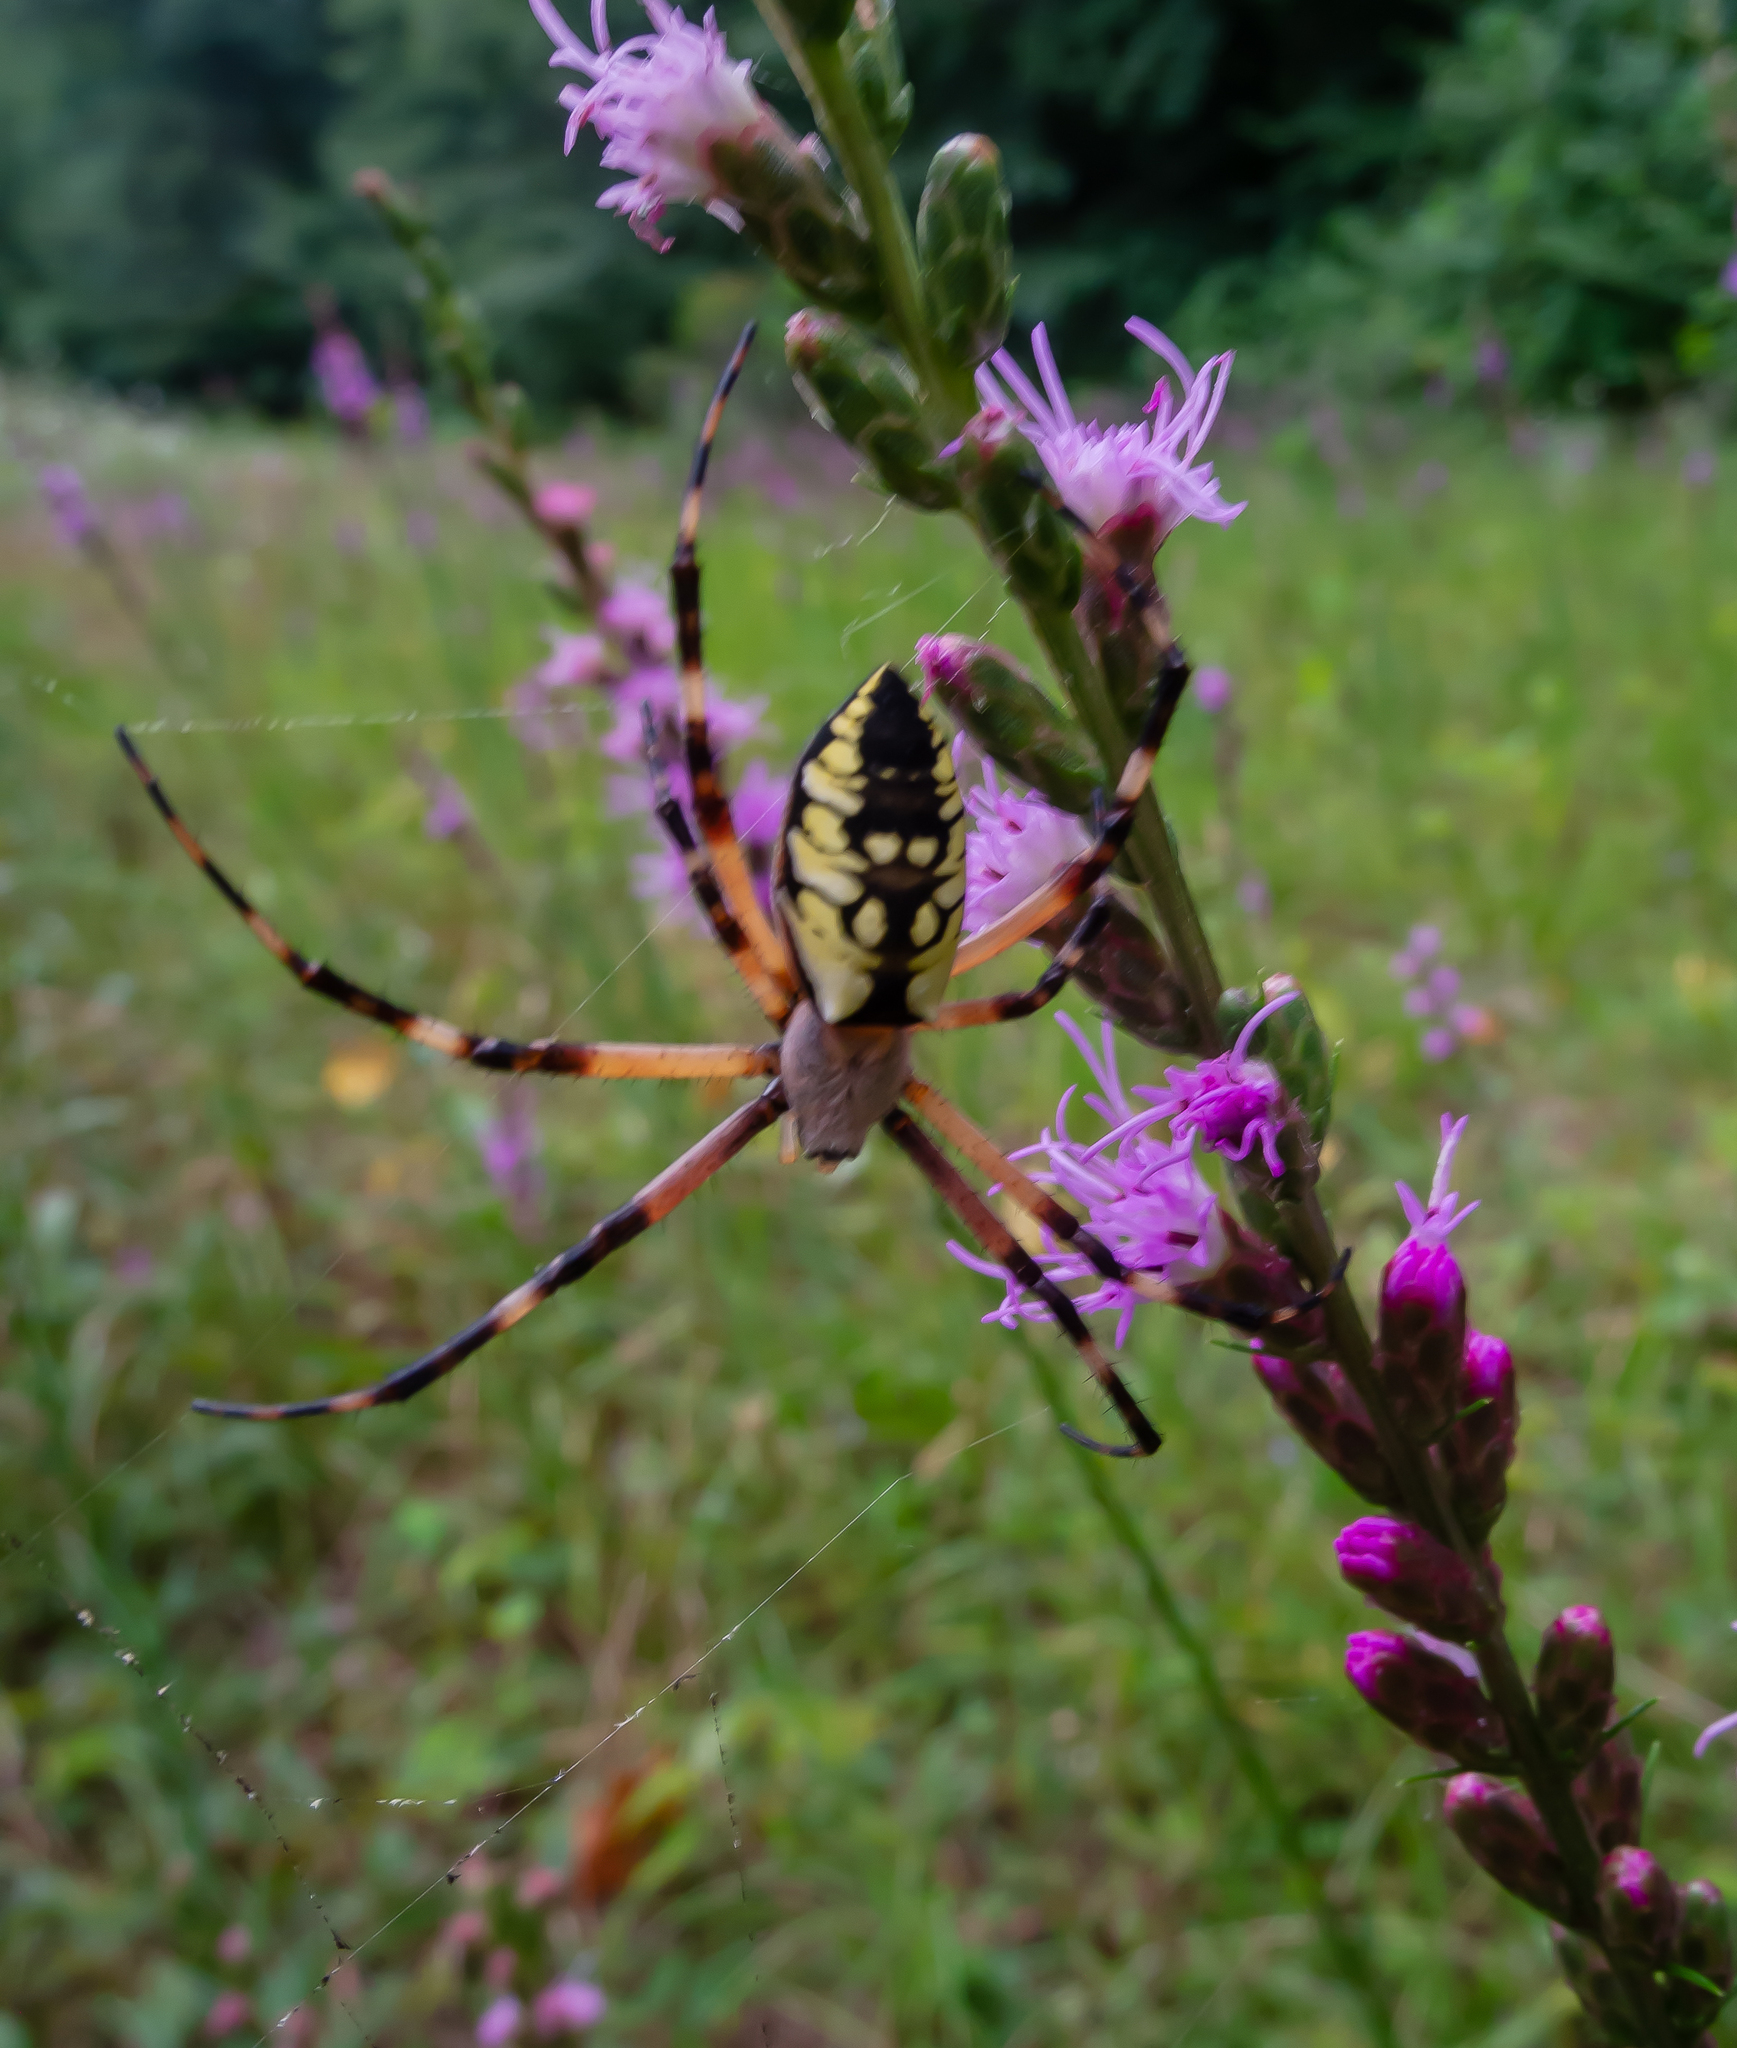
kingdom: Animalia
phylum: Arthropoda
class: Arachnida
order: Araneae
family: Araneidae
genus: Argiope
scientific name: Argiope aurantia
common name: Orb weavers
